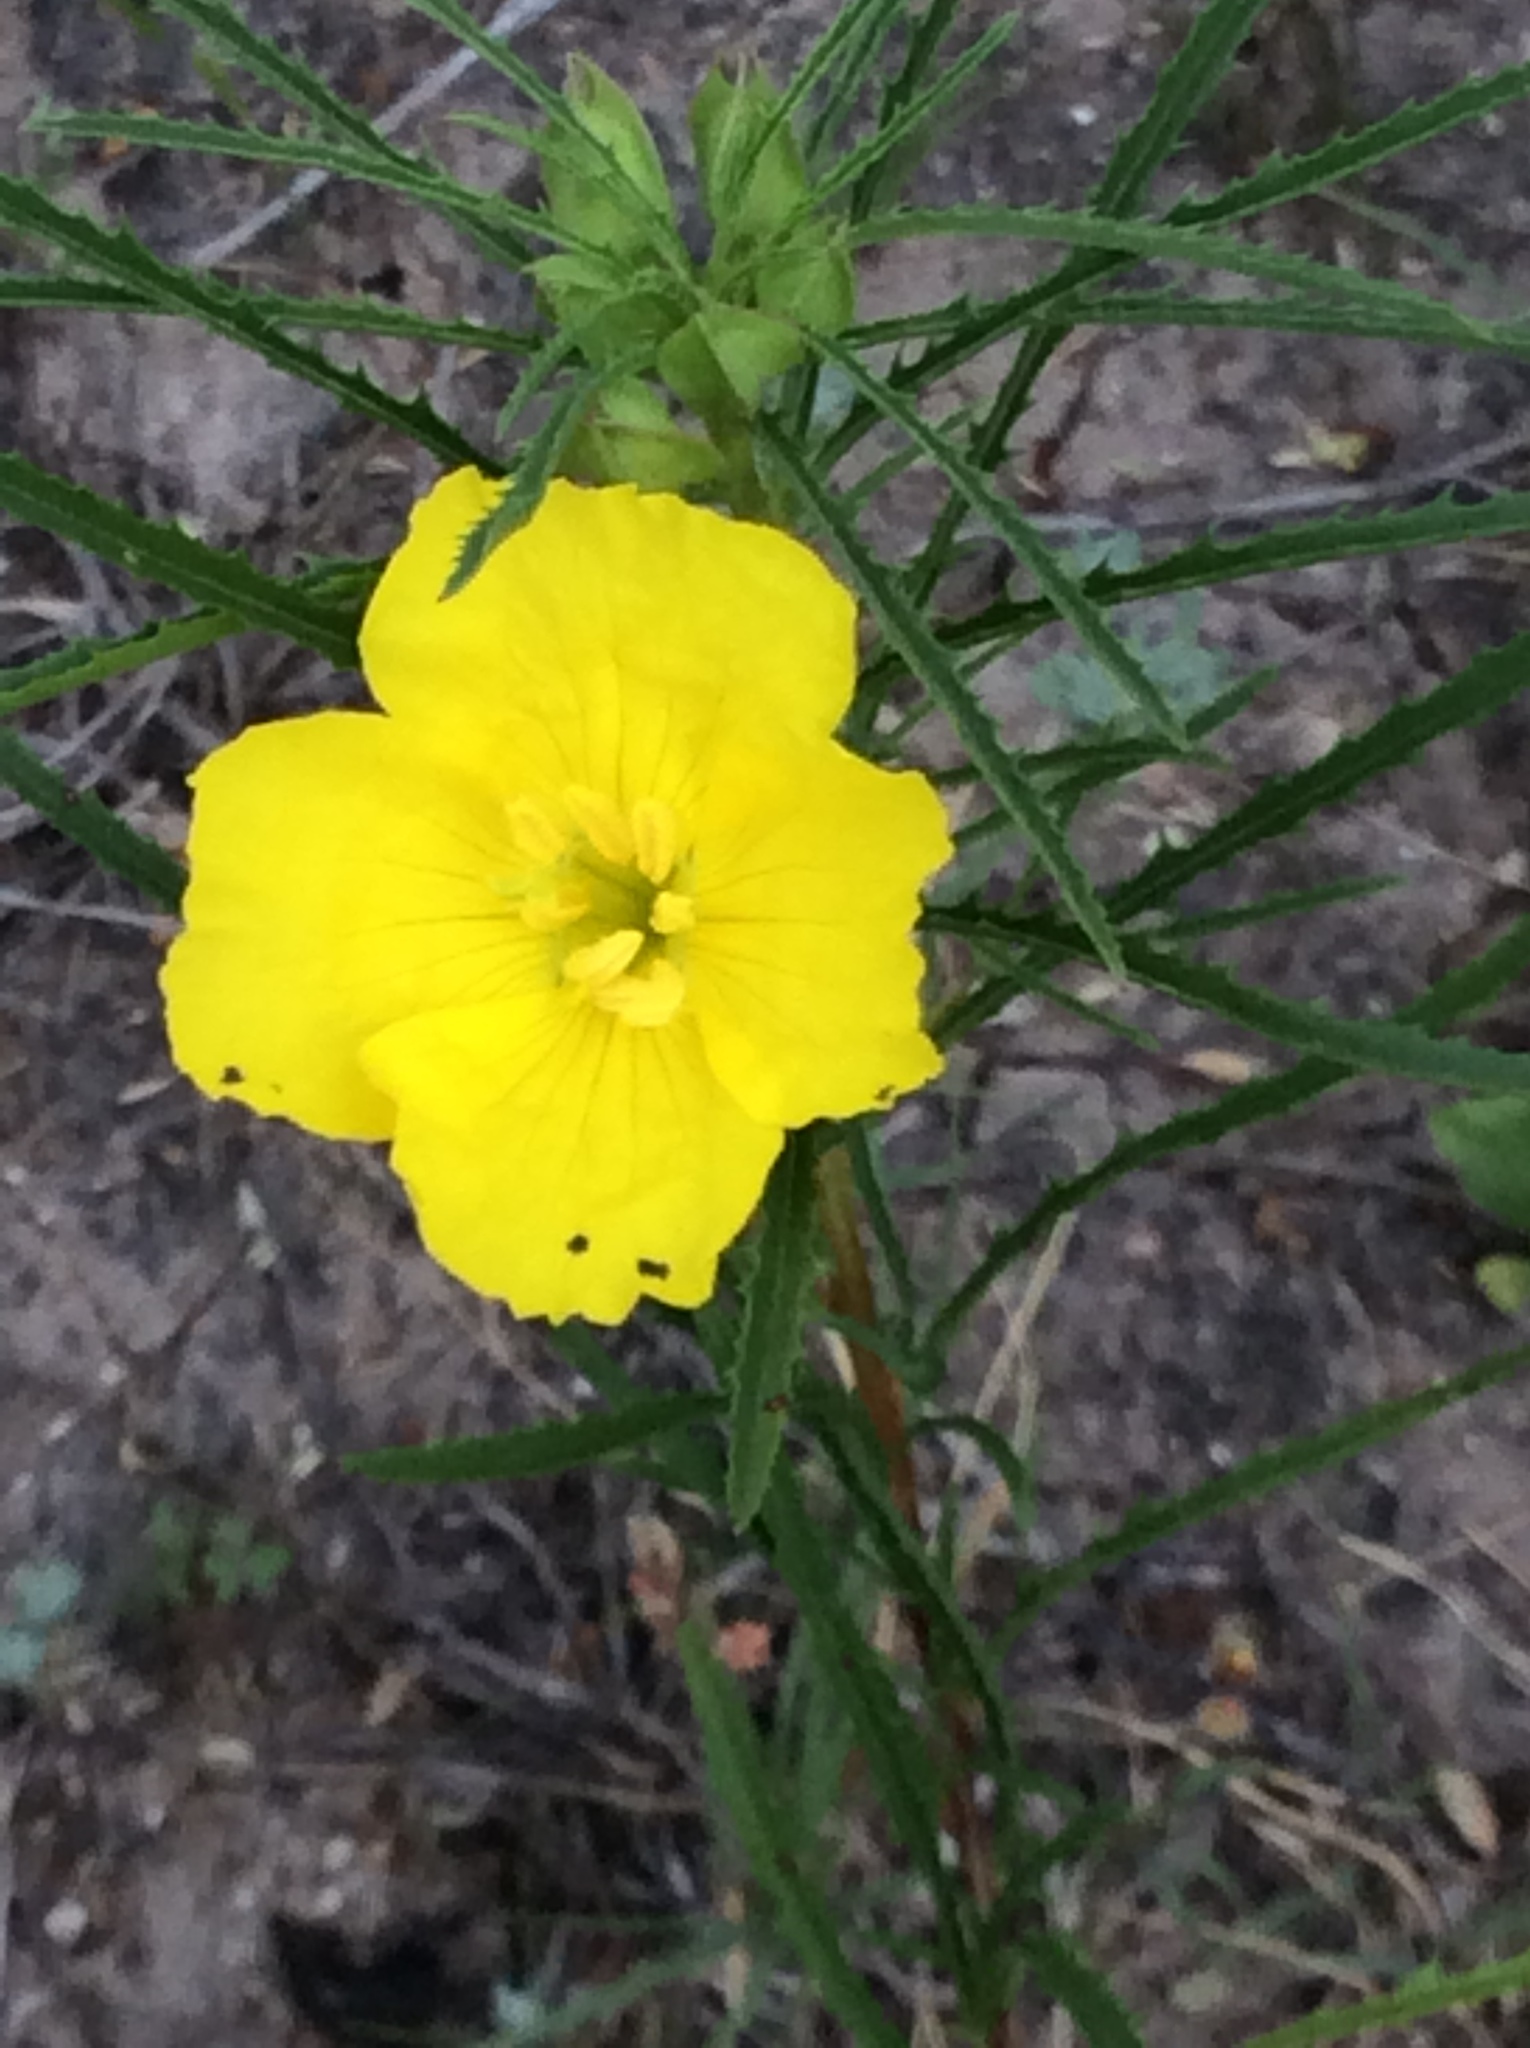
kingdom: Plantae
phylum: Tracheophyta
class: Magnoliopsida
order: Myrtales
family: Onagraceae
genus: Oenothera
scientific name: Oenothera
